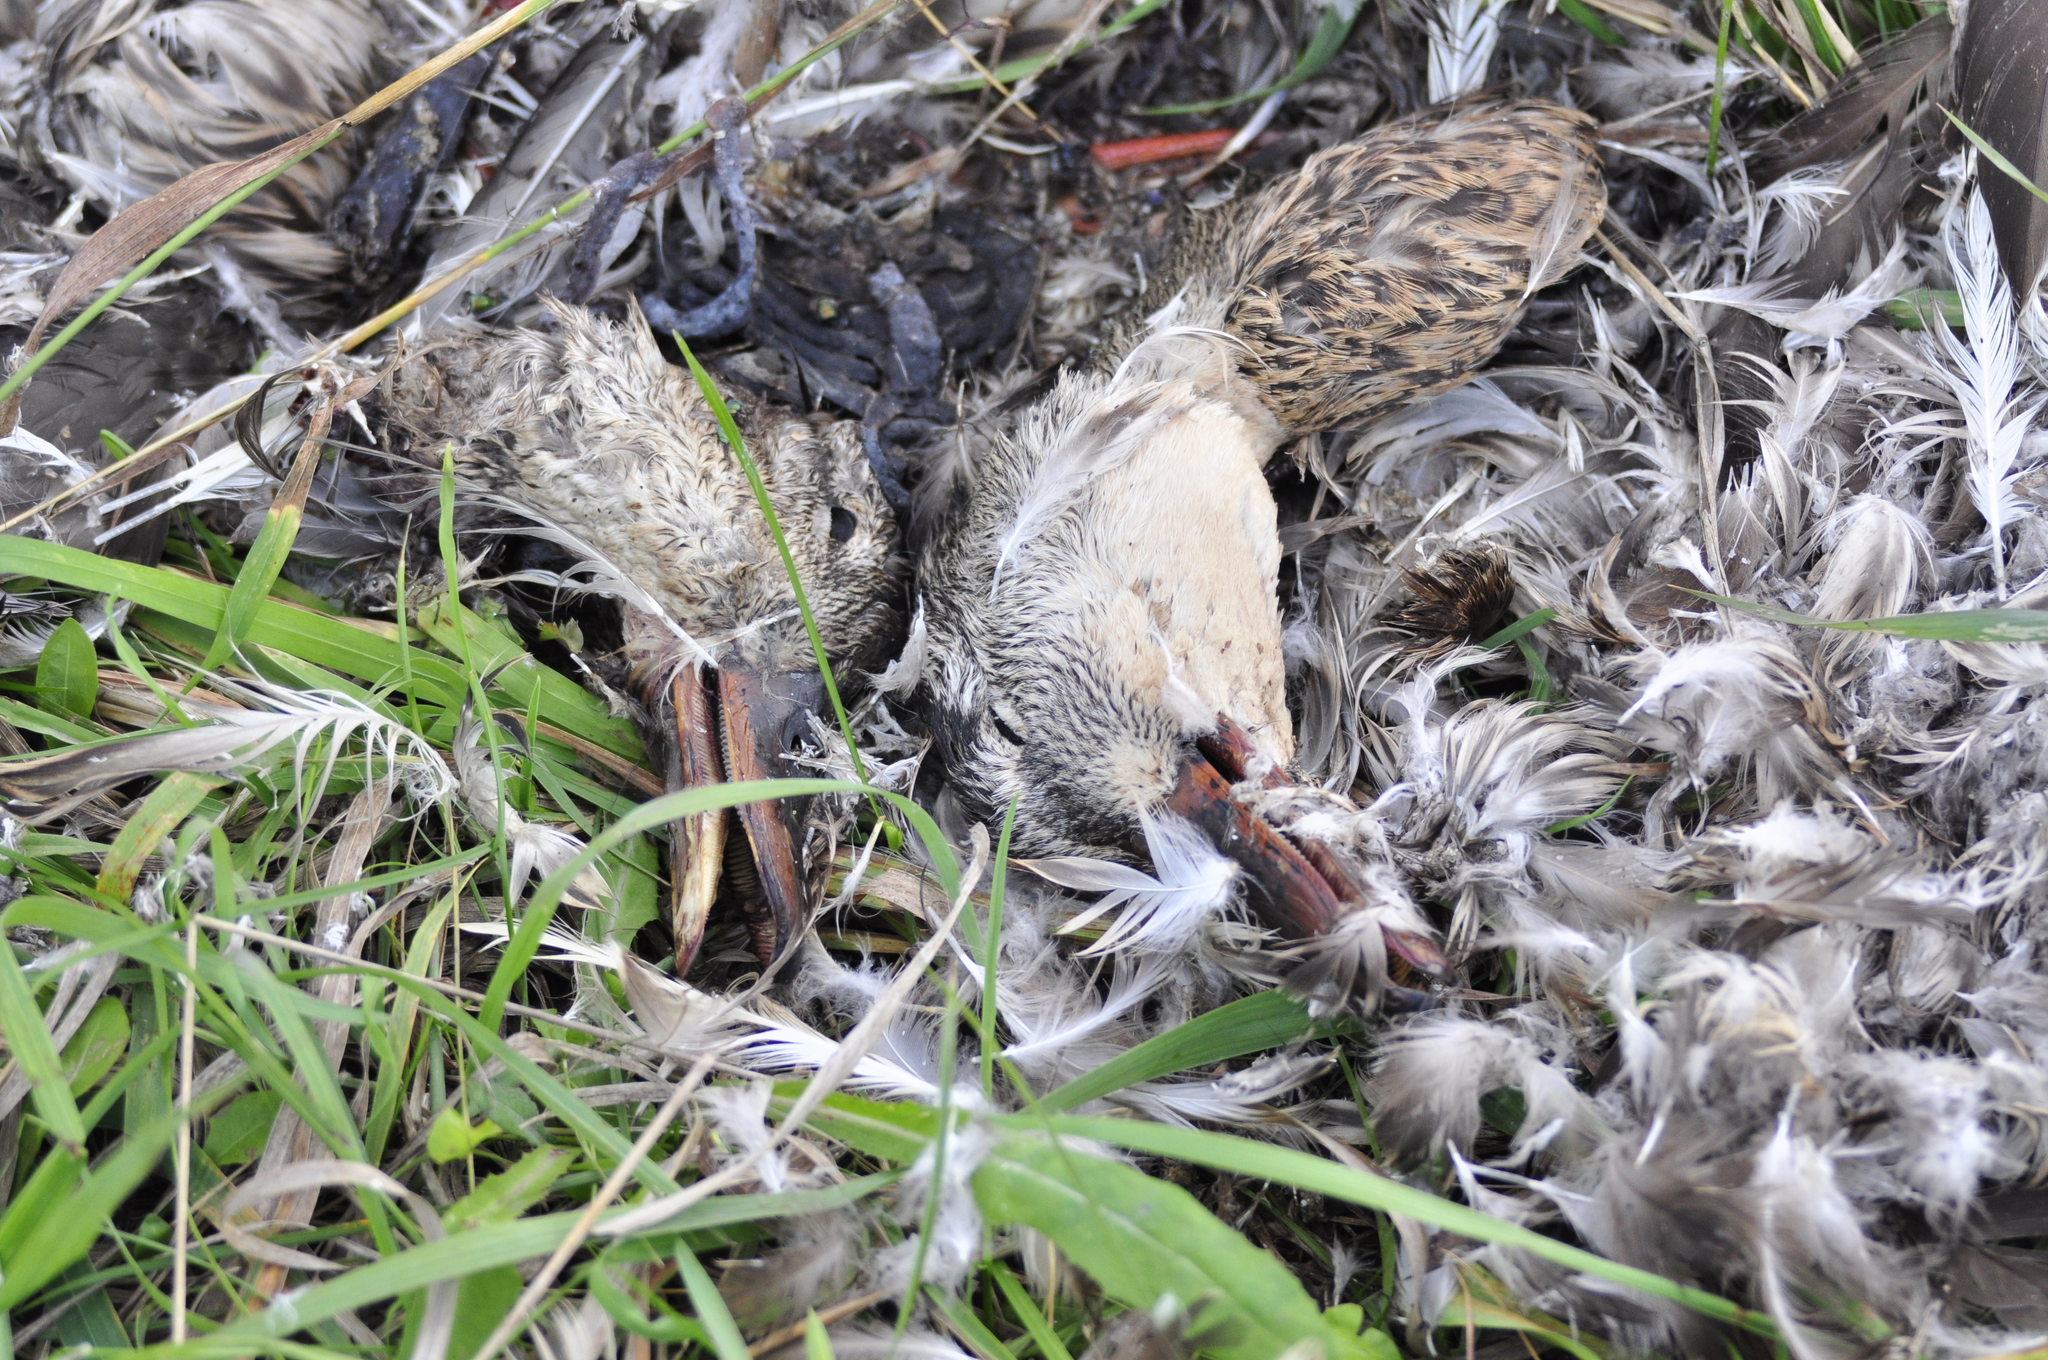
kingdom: Animalia
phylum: Chordata
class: Aves
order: Anseriformes
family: Anatidae
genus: Anas
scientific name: Anas platyrhynchos
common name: Mallard
